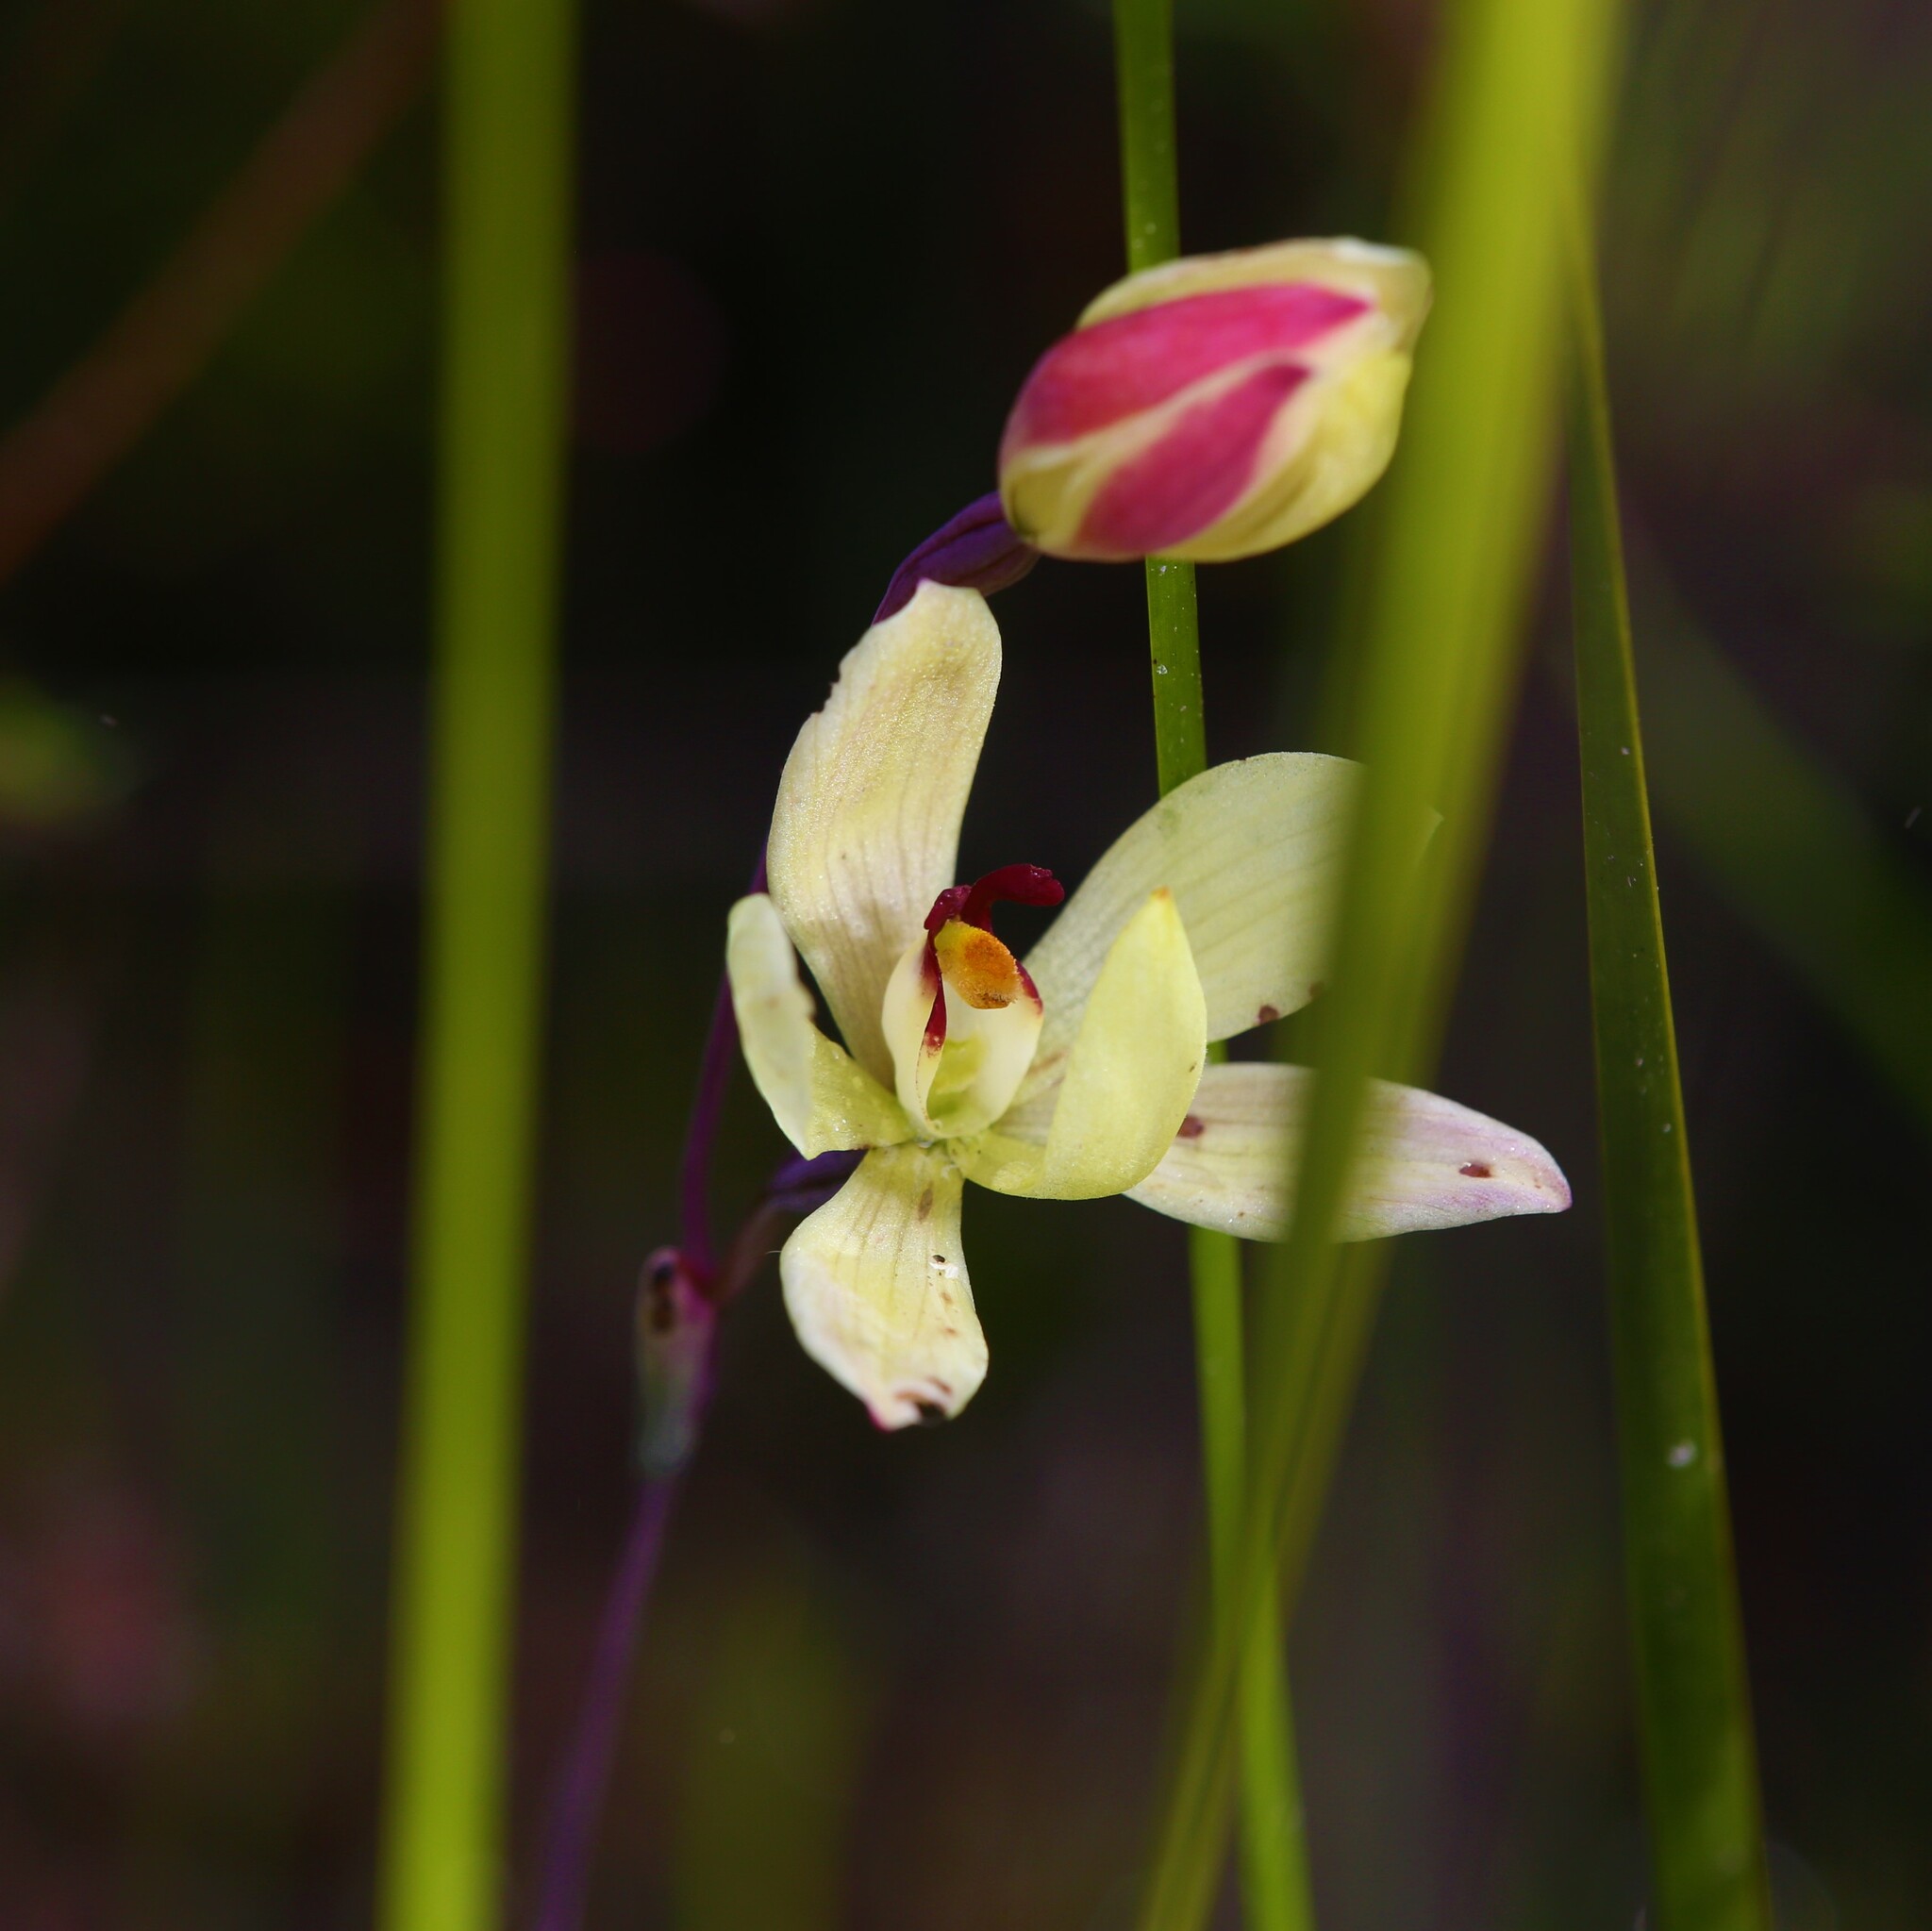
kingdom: Plantae
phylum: Tracheophyta
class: Liliopsida
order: Asparagales
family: Orchidaceae
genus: Thelymitra
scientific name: Thelymitra antennifera
